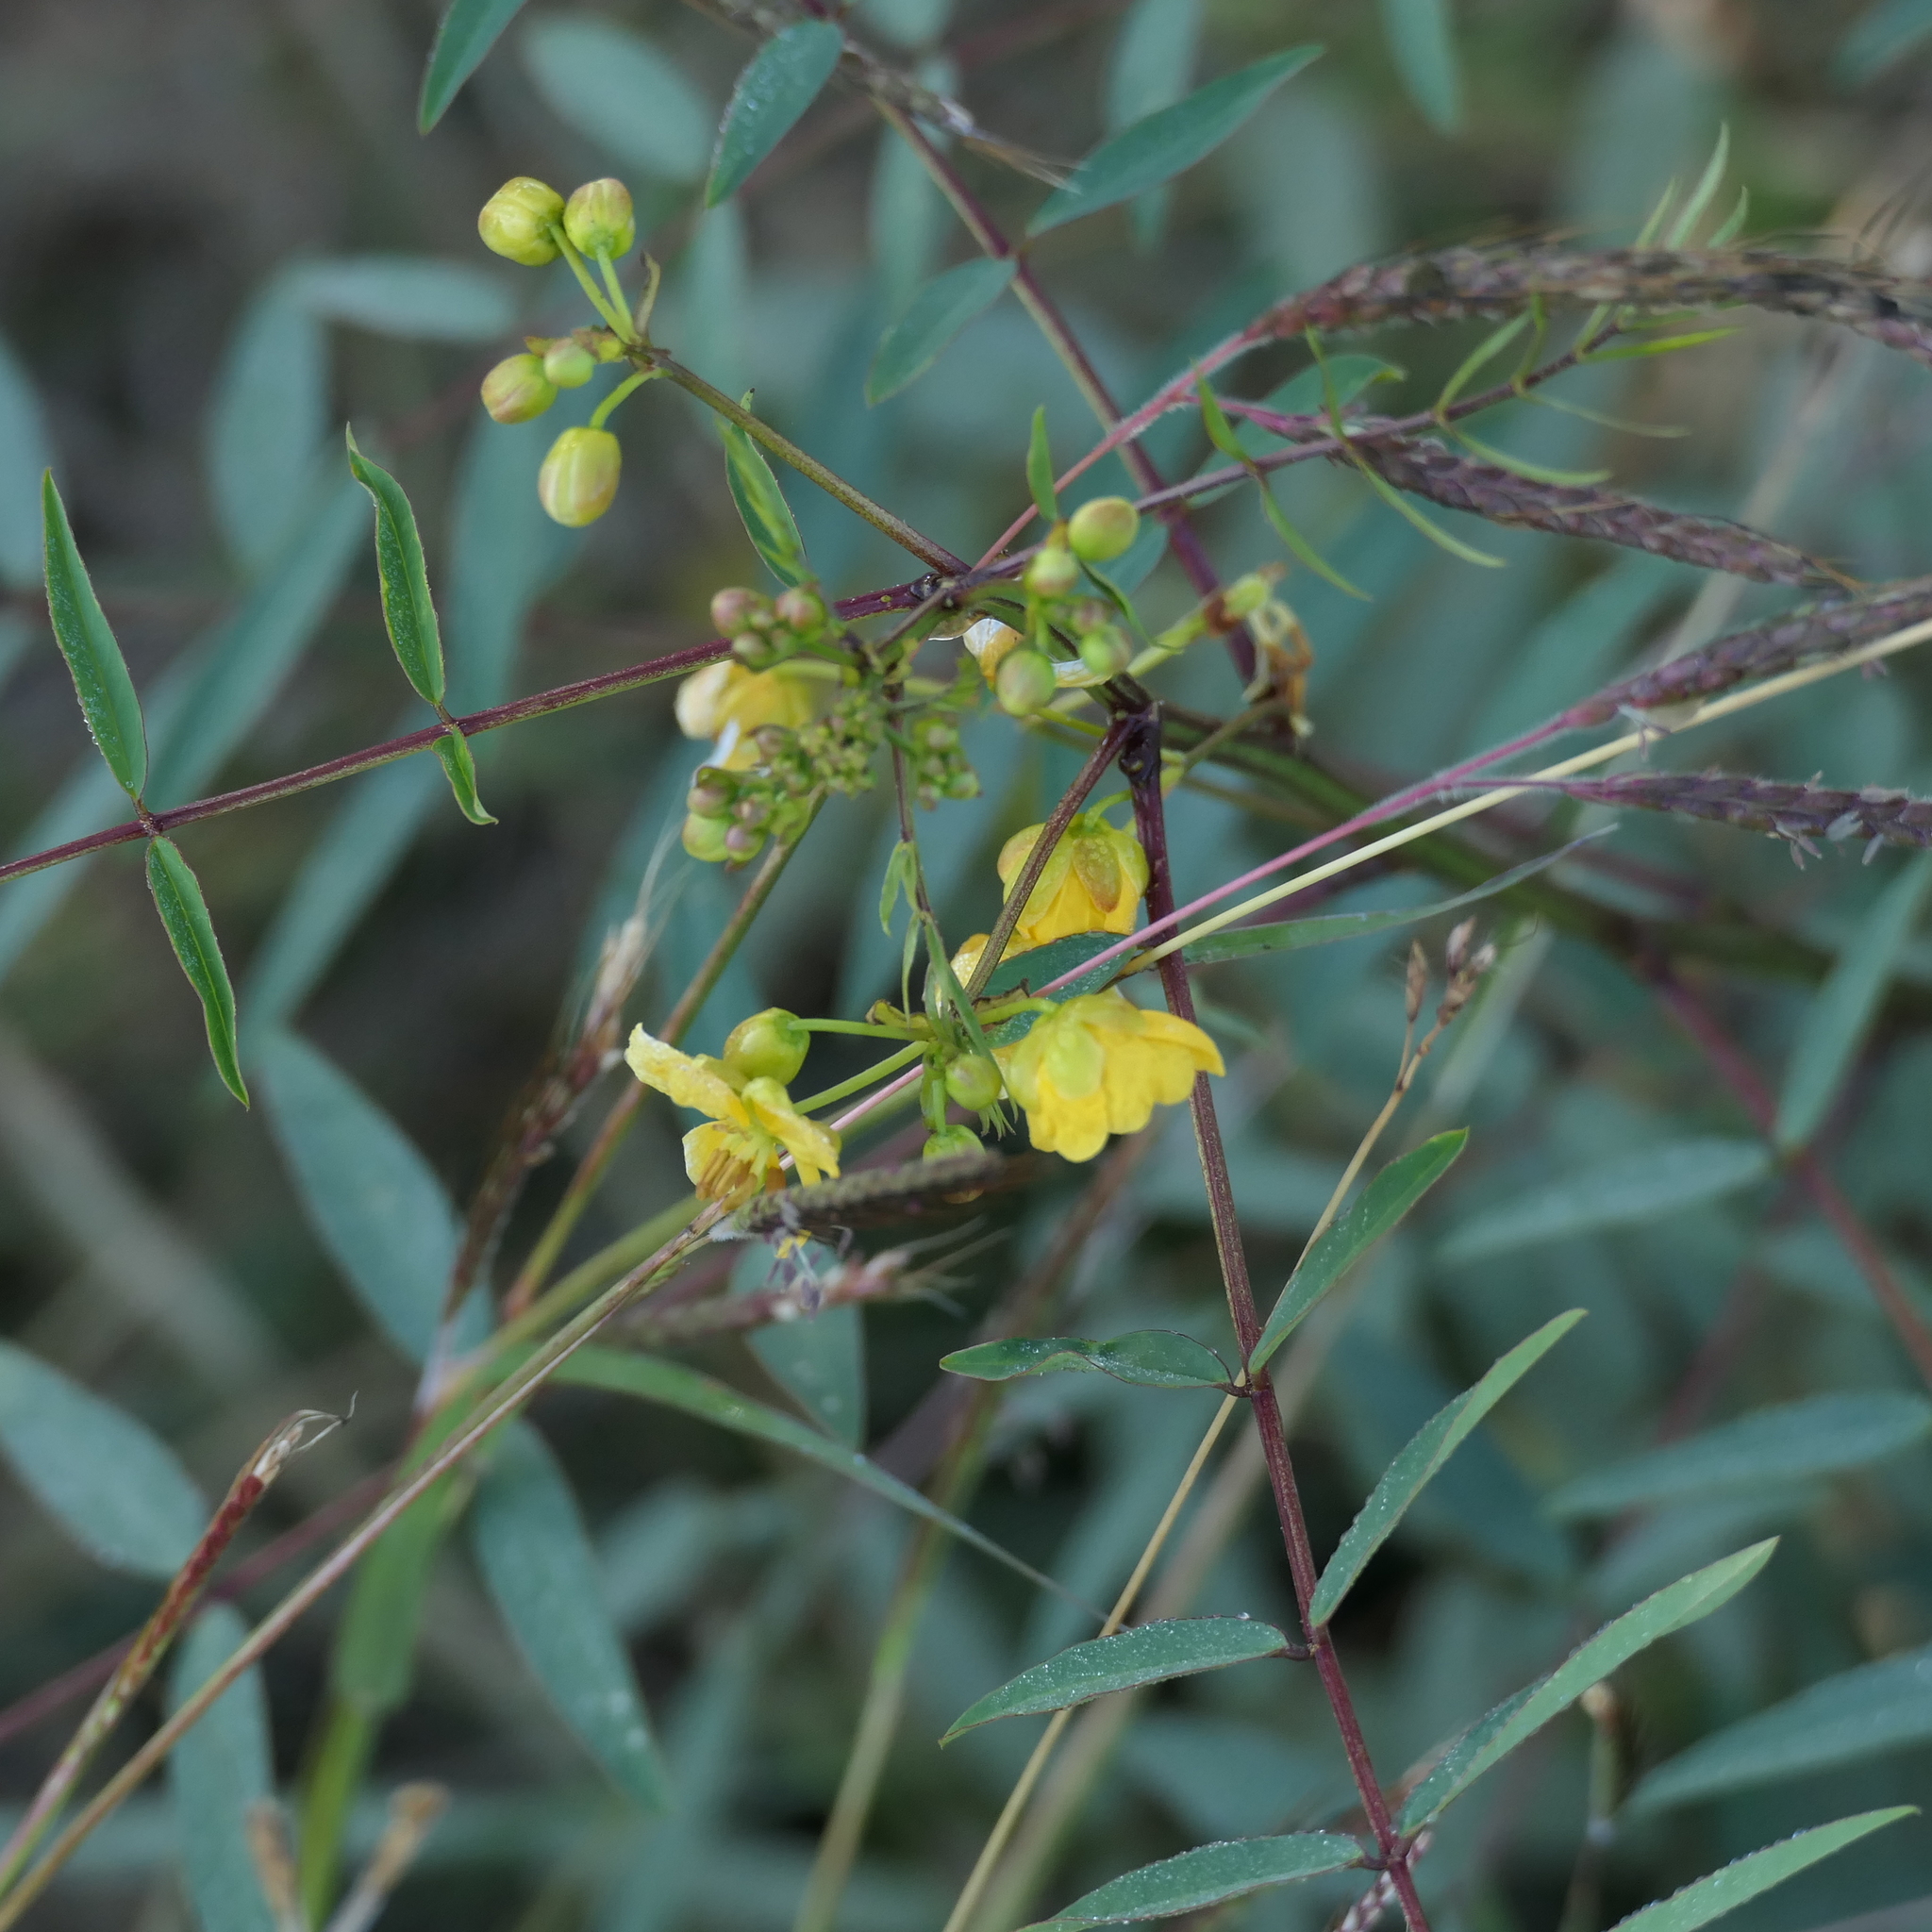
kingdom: Plantae
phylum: Tracheophyta
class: Magnoliopsida
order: Fabales
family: Fabaceae
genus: Senna
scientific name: Senna sophera
